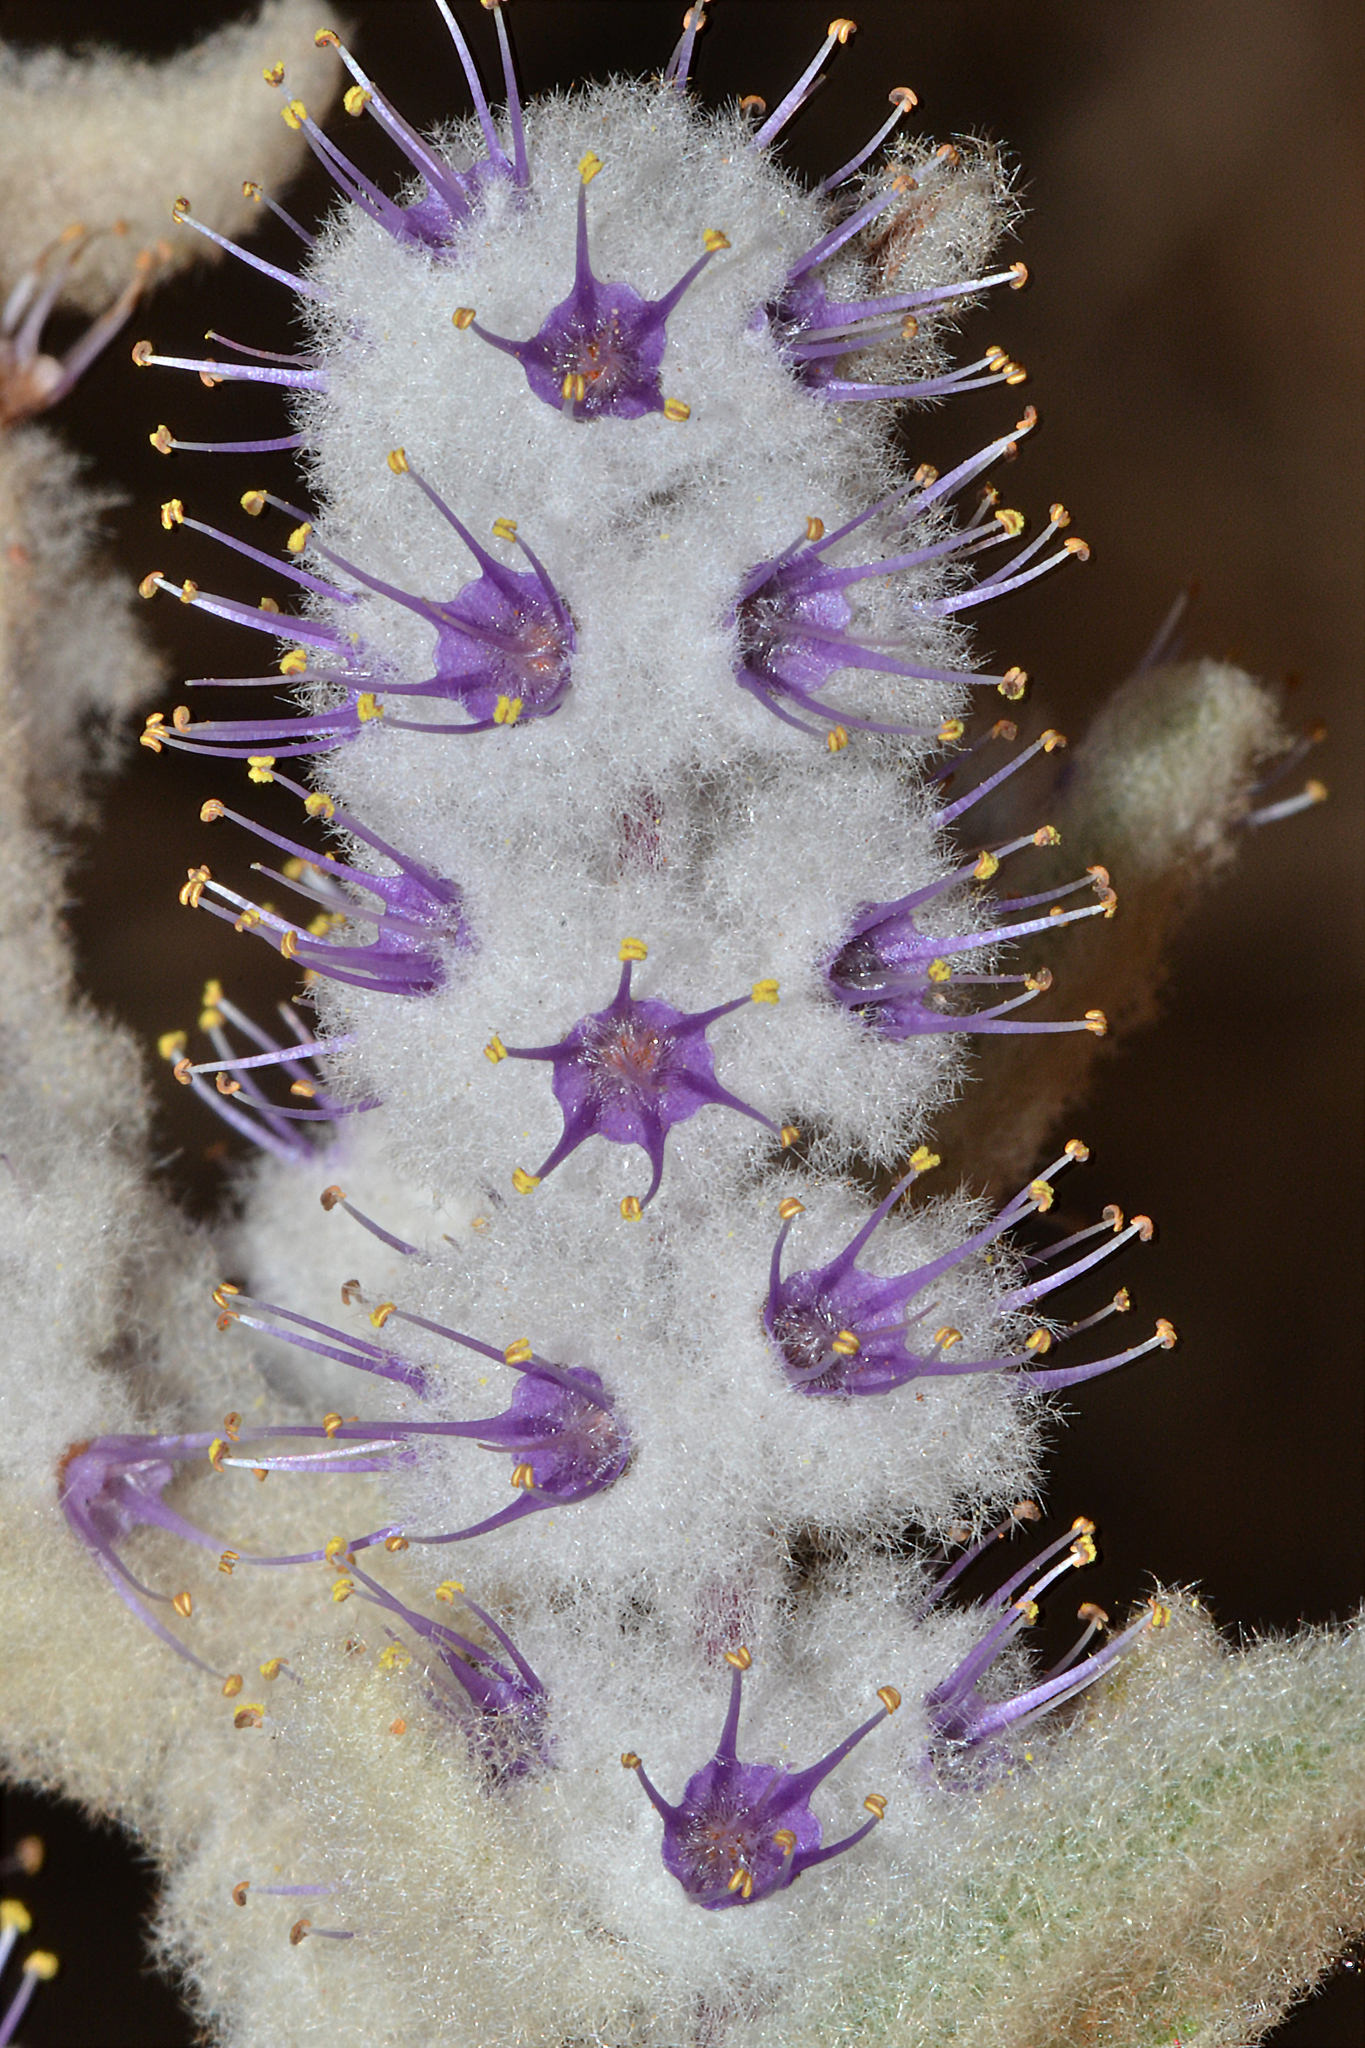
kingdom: Plantae
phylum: Tracheophyta
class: Magnoliopsida
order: Lamiales
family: Lamiaceae
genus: Lachnostachys
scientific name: Lachnostachys verbascifolia
